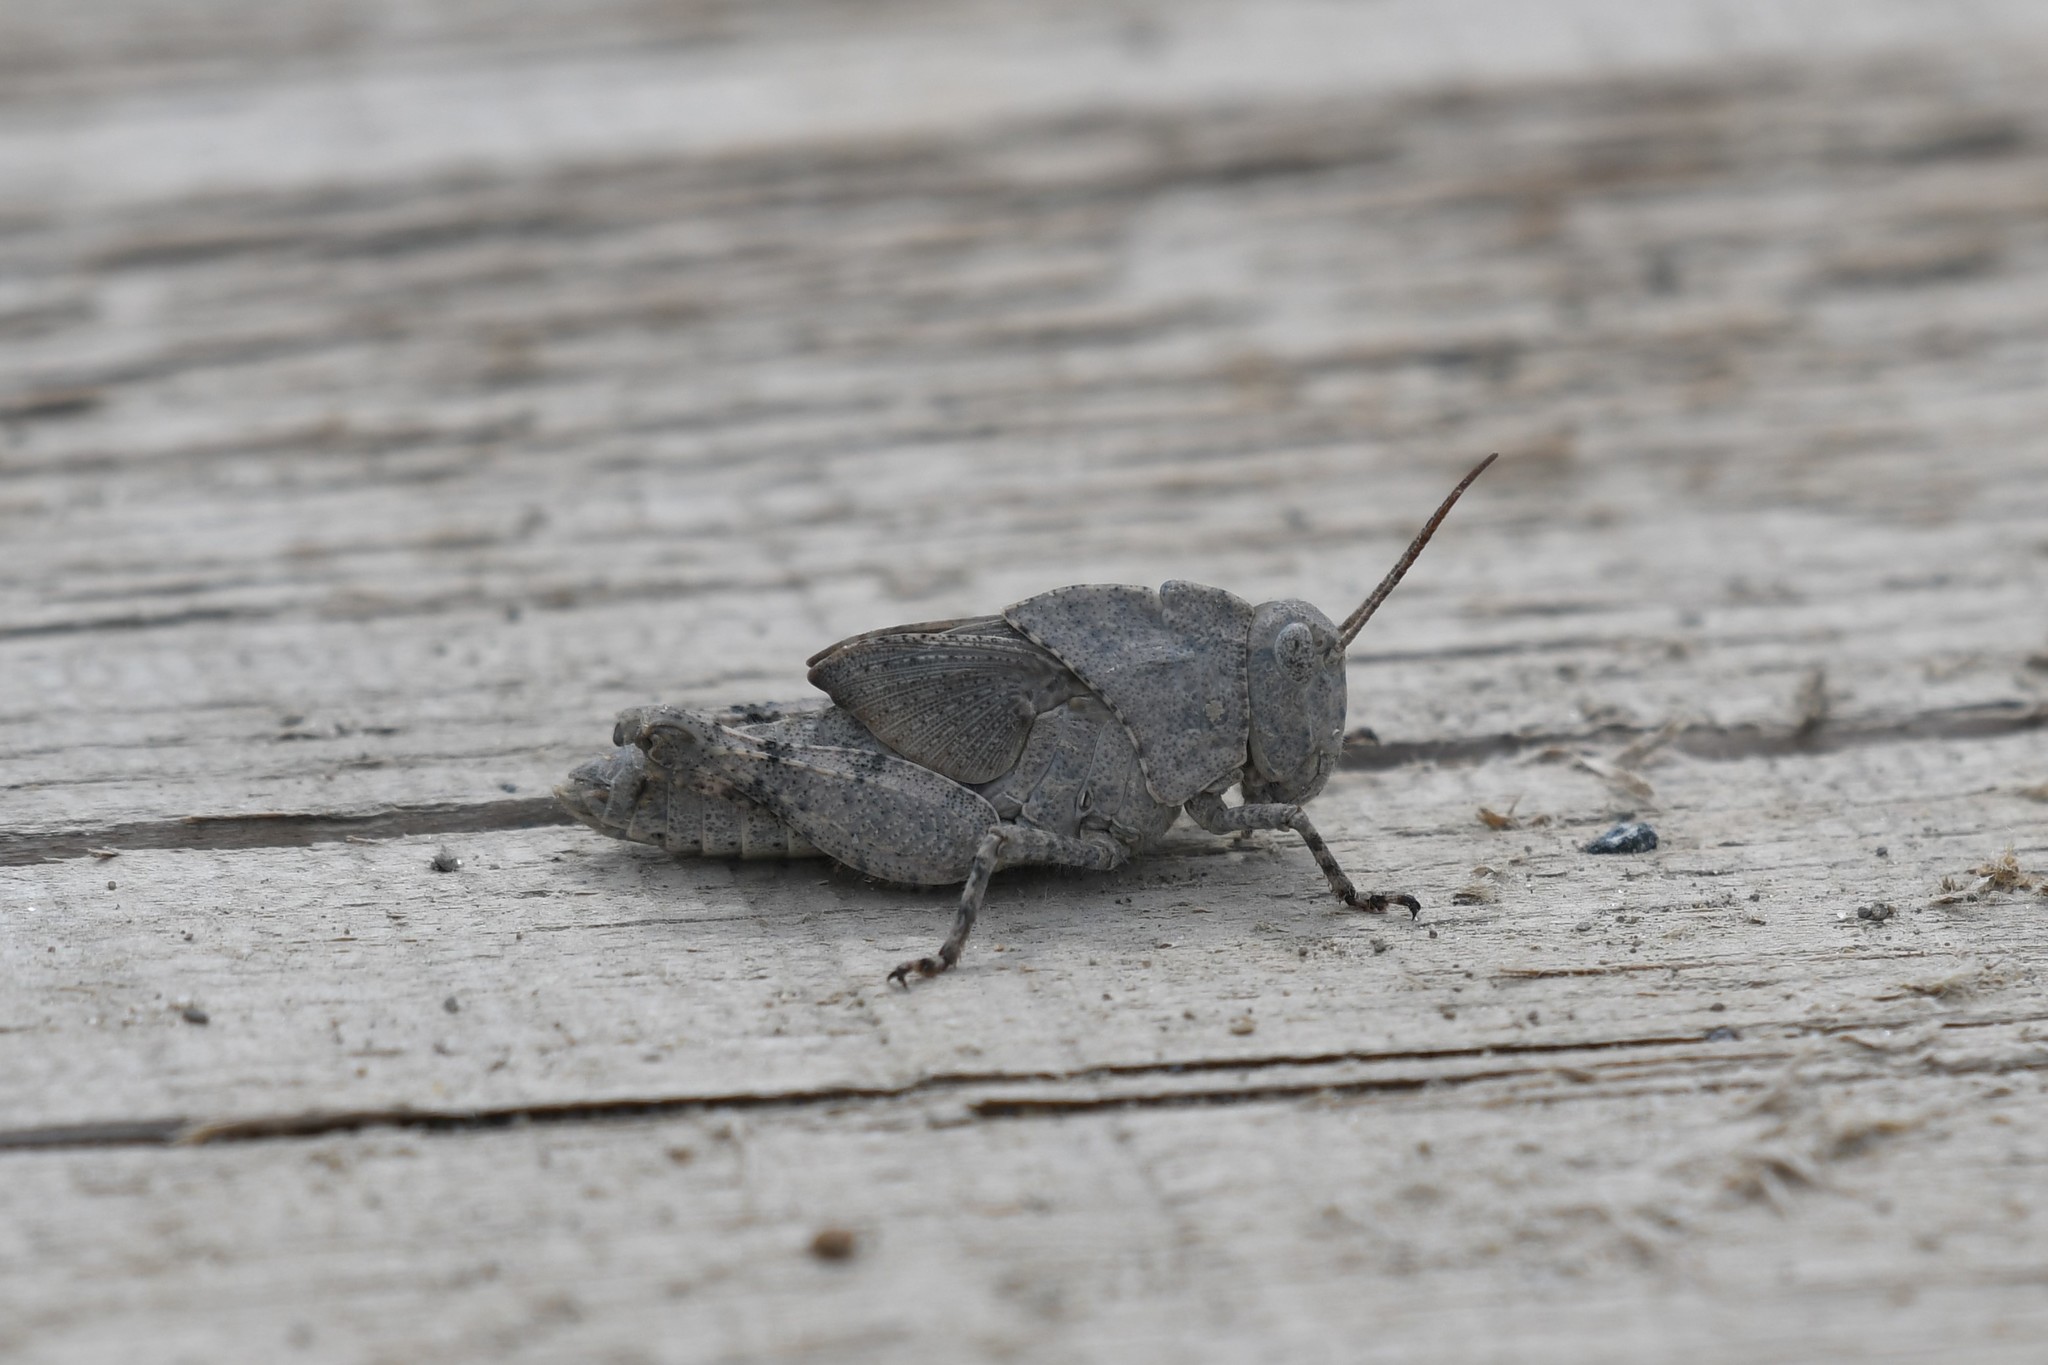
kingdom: Animalia
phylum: Arthropoda
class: Insecta
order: Orthoptera
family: Acrididae
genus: Dissosteira
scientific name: Dissosteira carolina
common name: Carolina grasshopper
